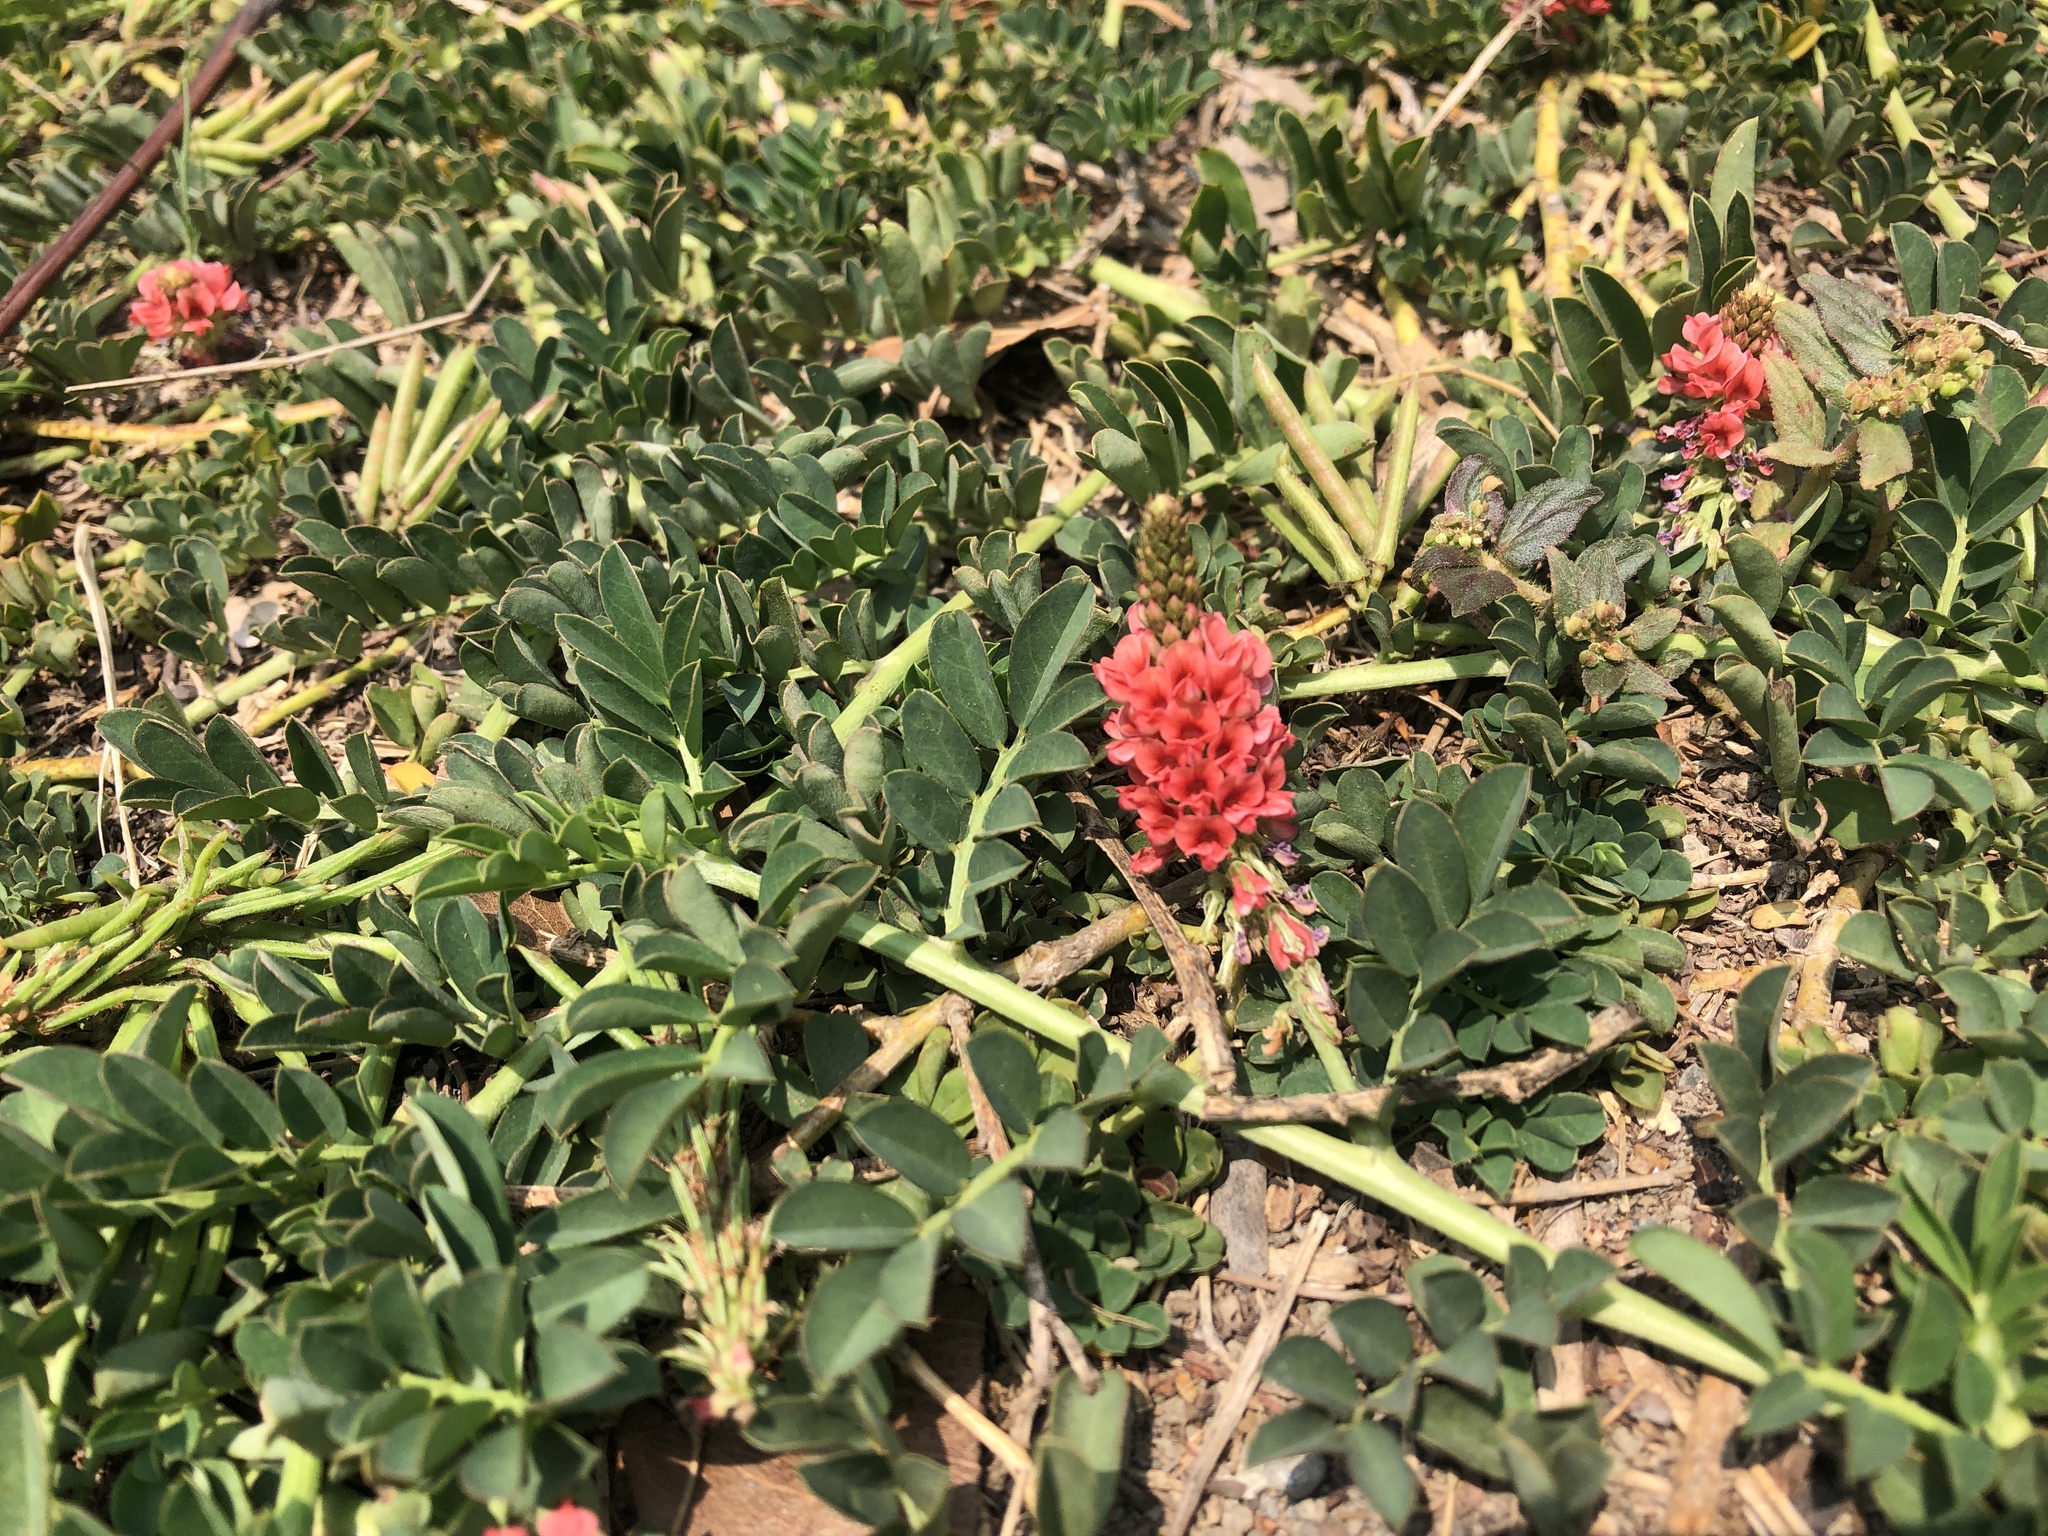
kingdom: Plantae
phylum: Tracheophyta
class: Magnoliopsida
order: Fabales
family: Fabaceae
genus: Indigofera
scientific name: Indigofera spicata
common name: Creeping indigo
